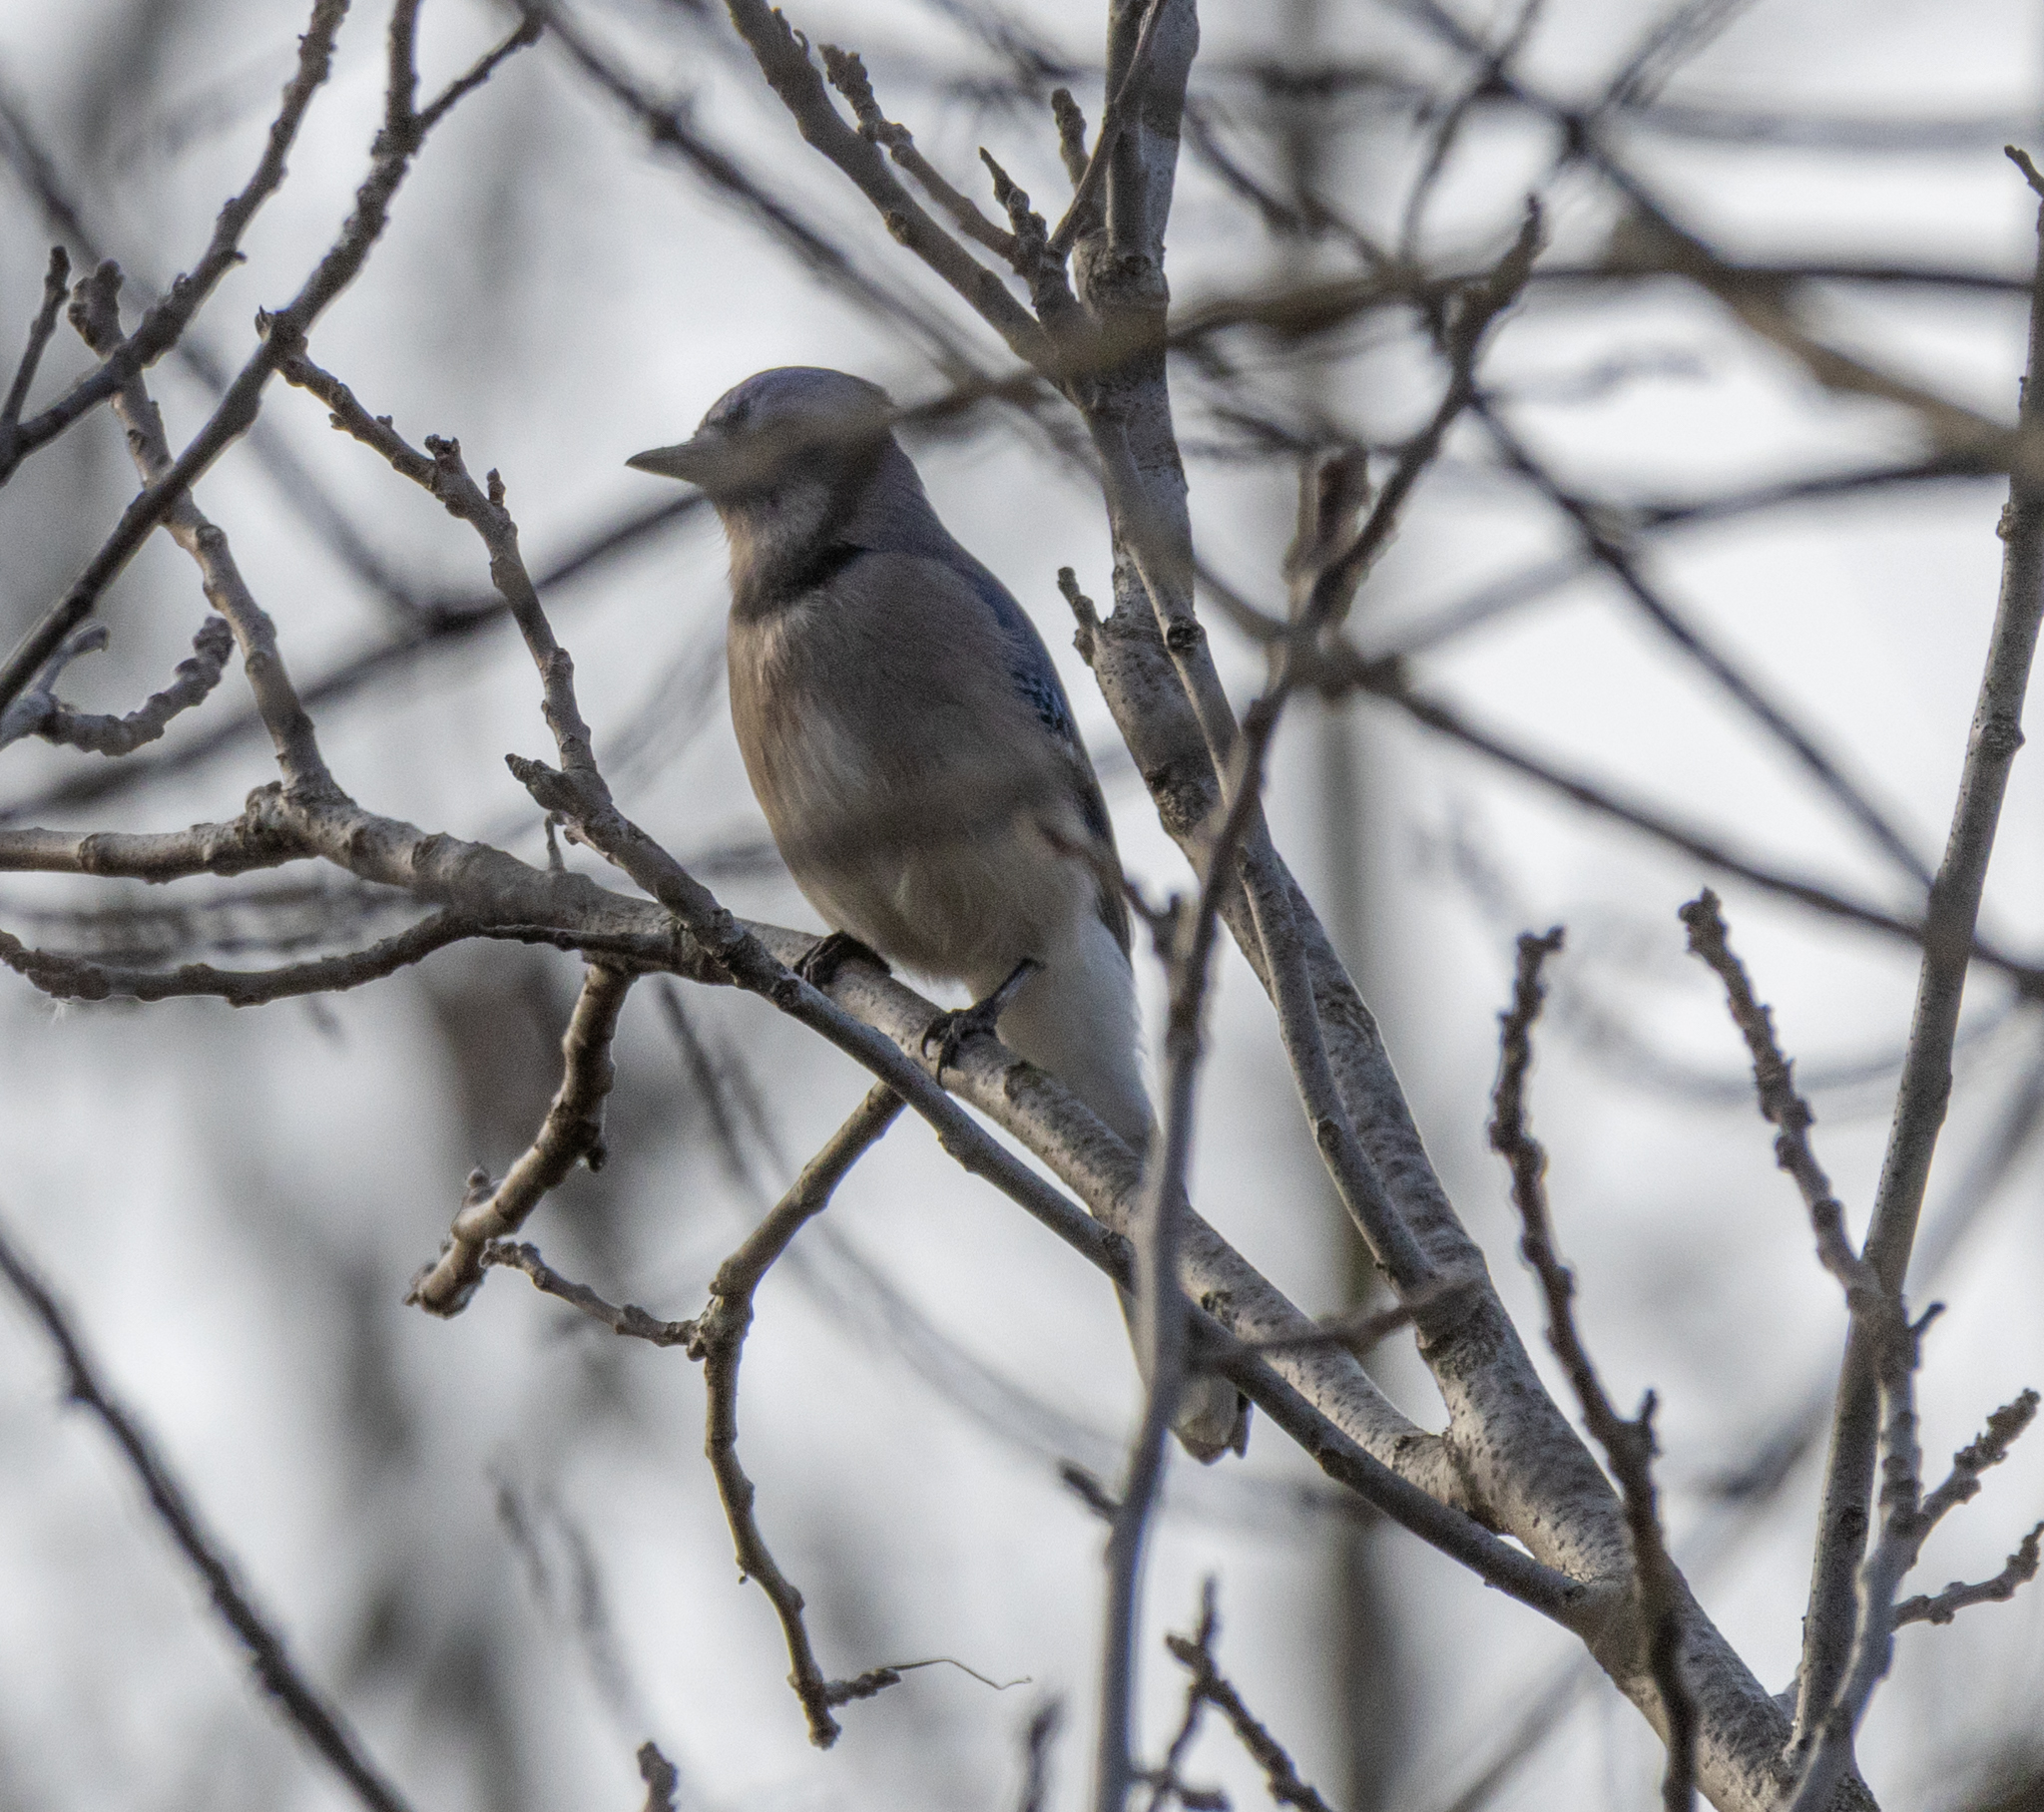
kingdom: Animalia
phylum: Chordata
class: Aves
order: Passeriformes
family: Corvidae
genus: Cyanocitta
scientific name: Cyanocitta cristata
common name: Blue jay
